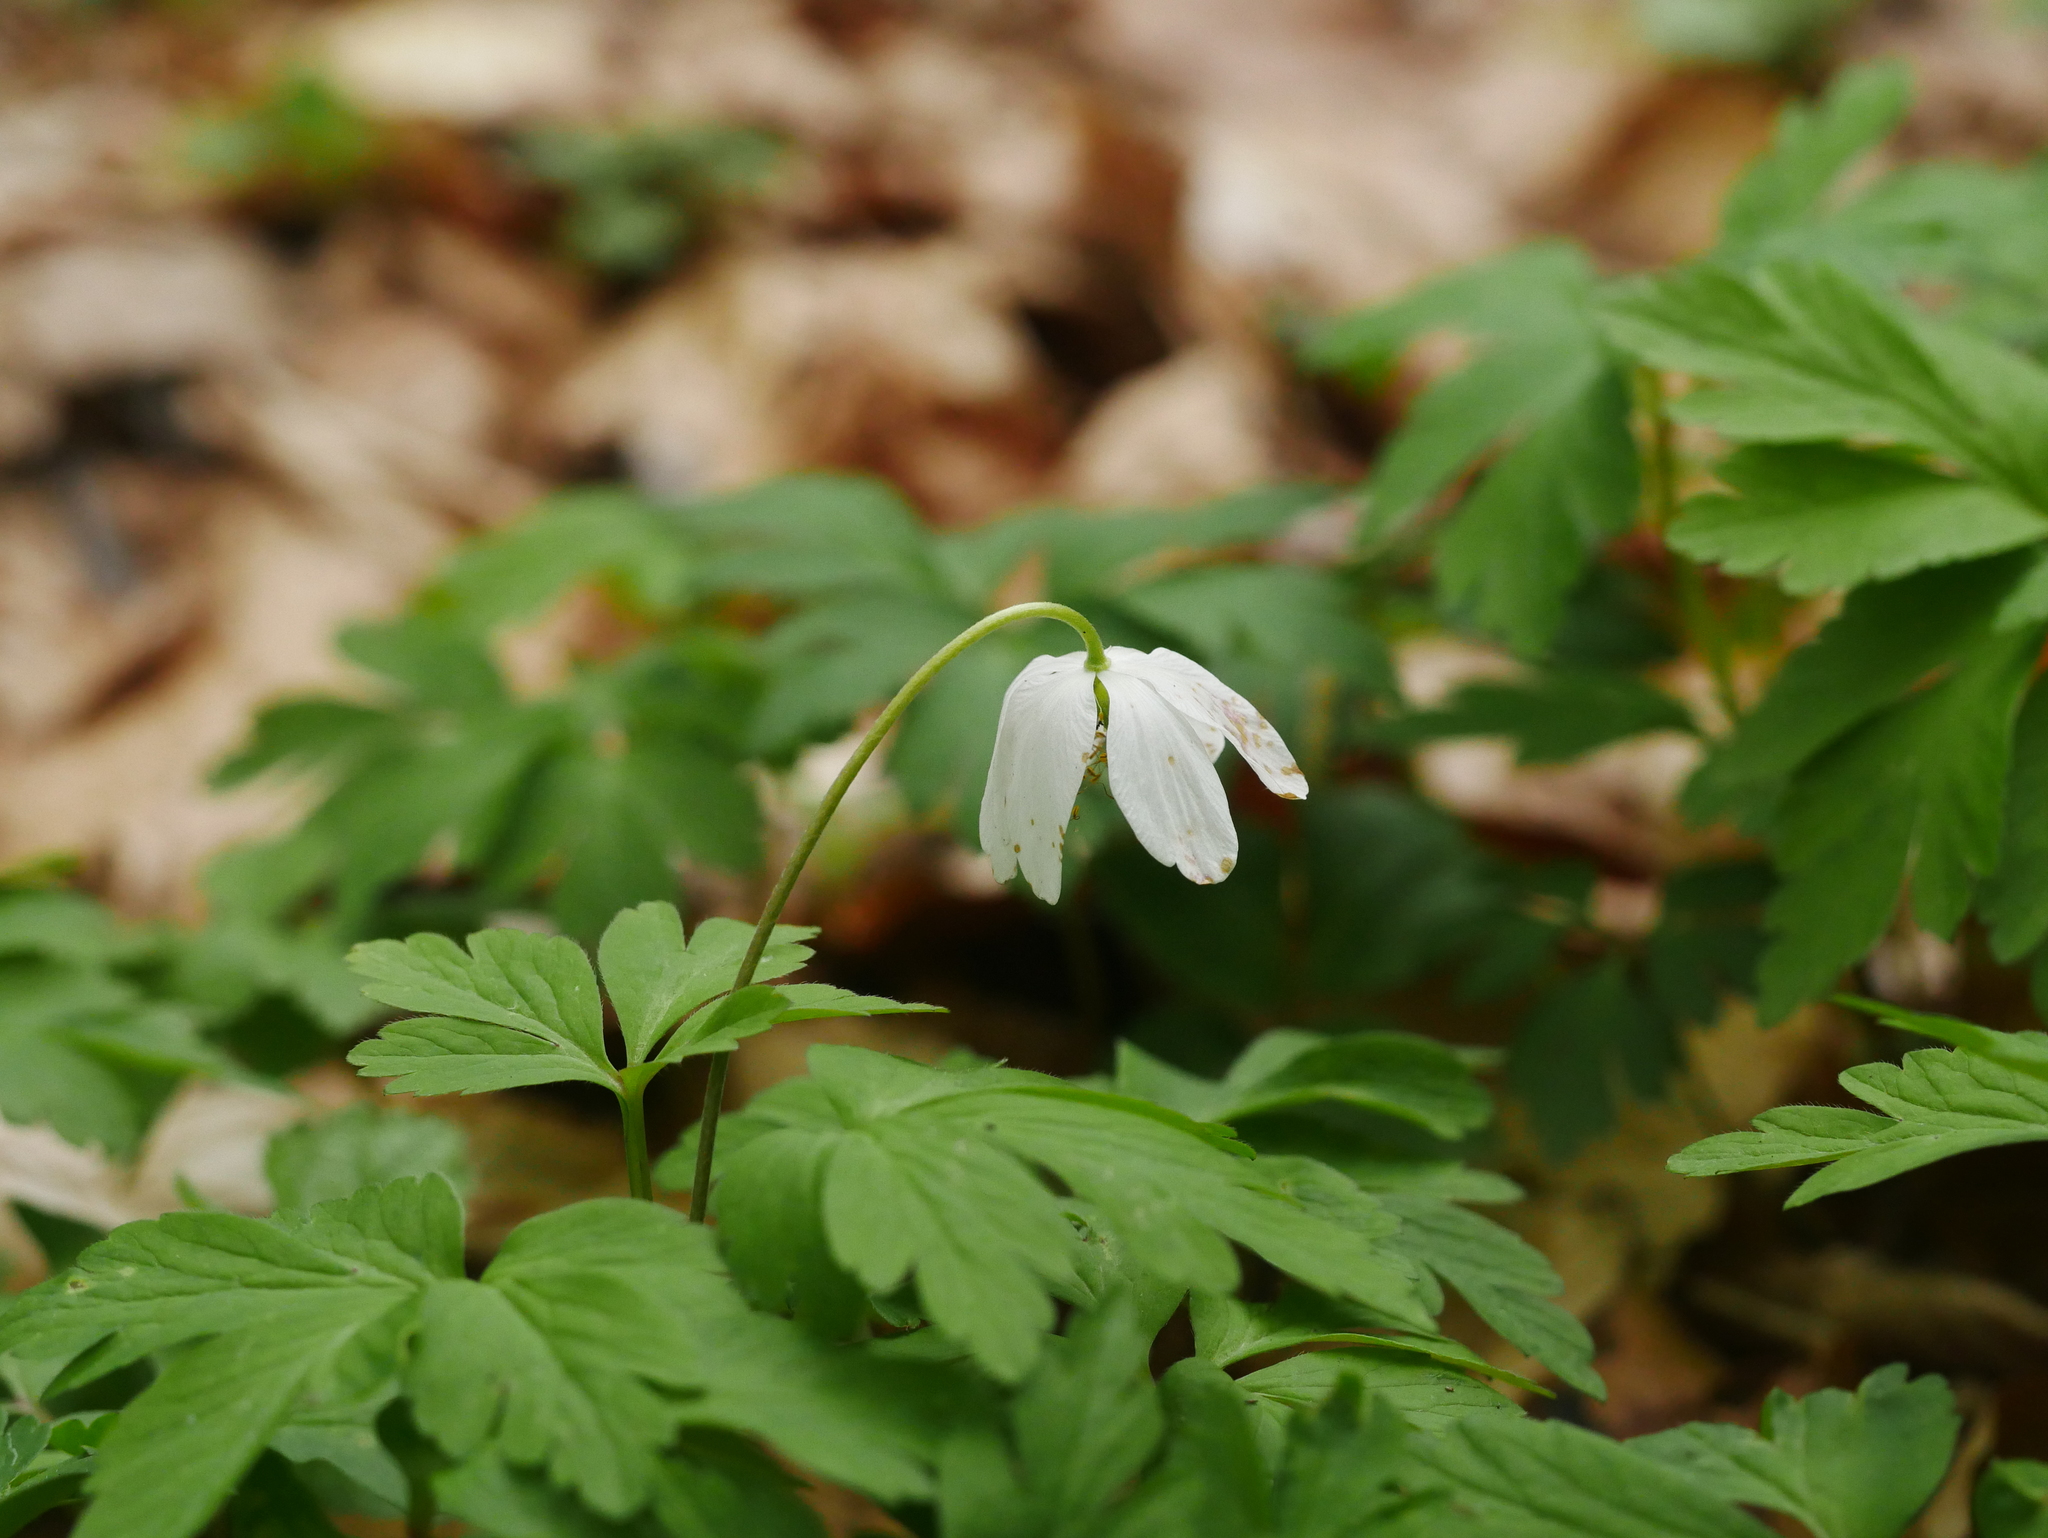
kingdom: Plantae
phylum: Tracheophyta
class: Magnoliopsida
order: Ranunculales
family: Ranunculaceae
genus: Anemone
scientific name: Anemone nemorosa
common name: Wood anemone
